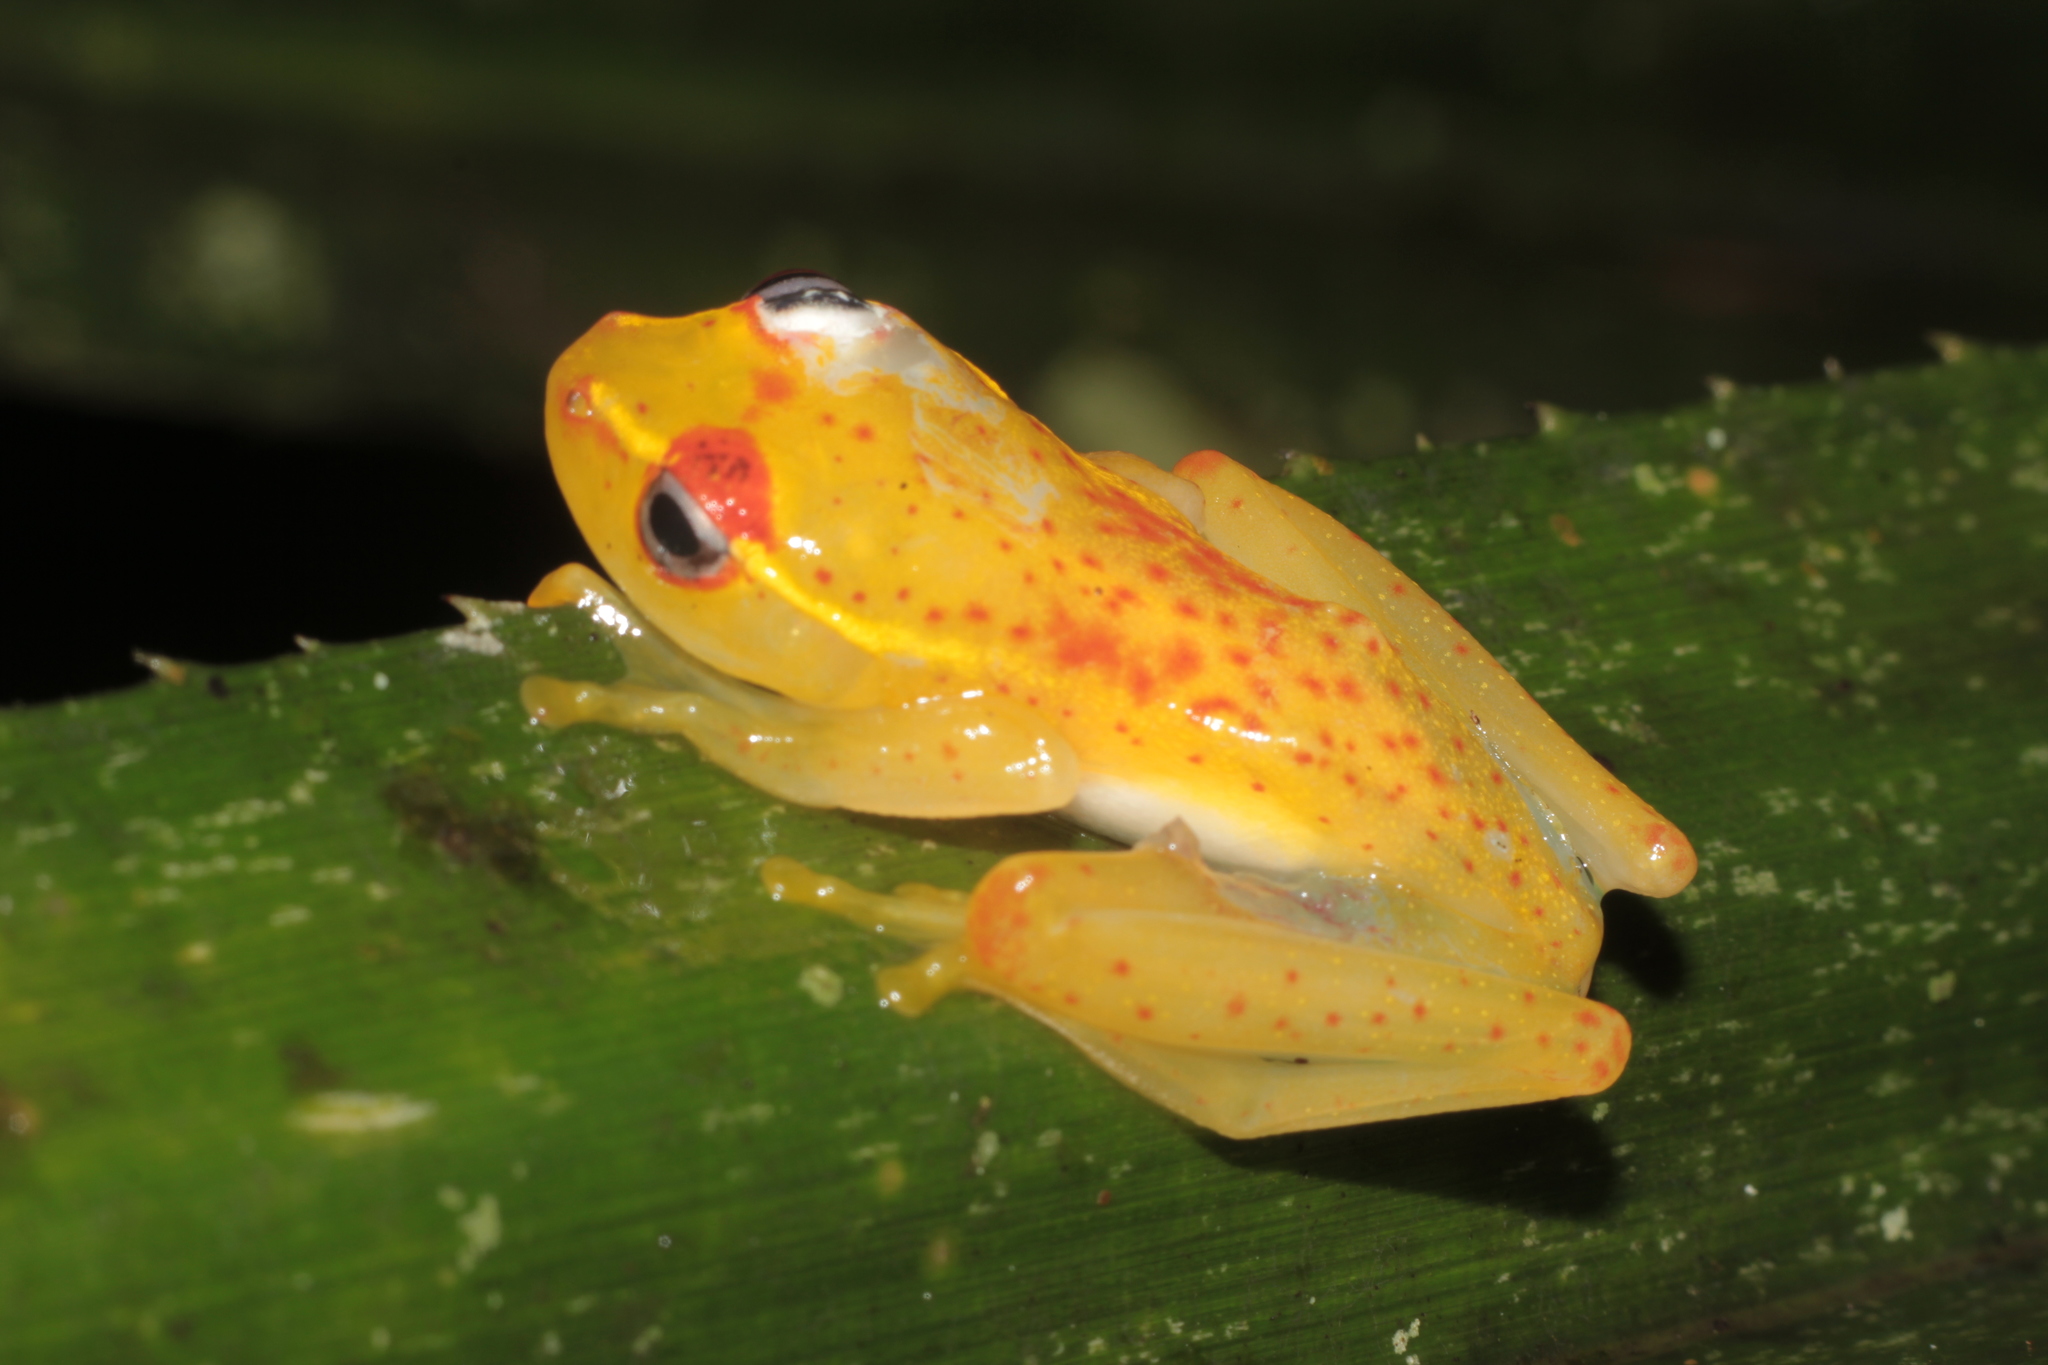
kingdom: Animalia
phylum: Chordata
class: Amphibia
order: Anura
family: Mantellidae
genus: Boophis
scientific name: Boophis rappiodes
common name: Central bright-eyed frog
